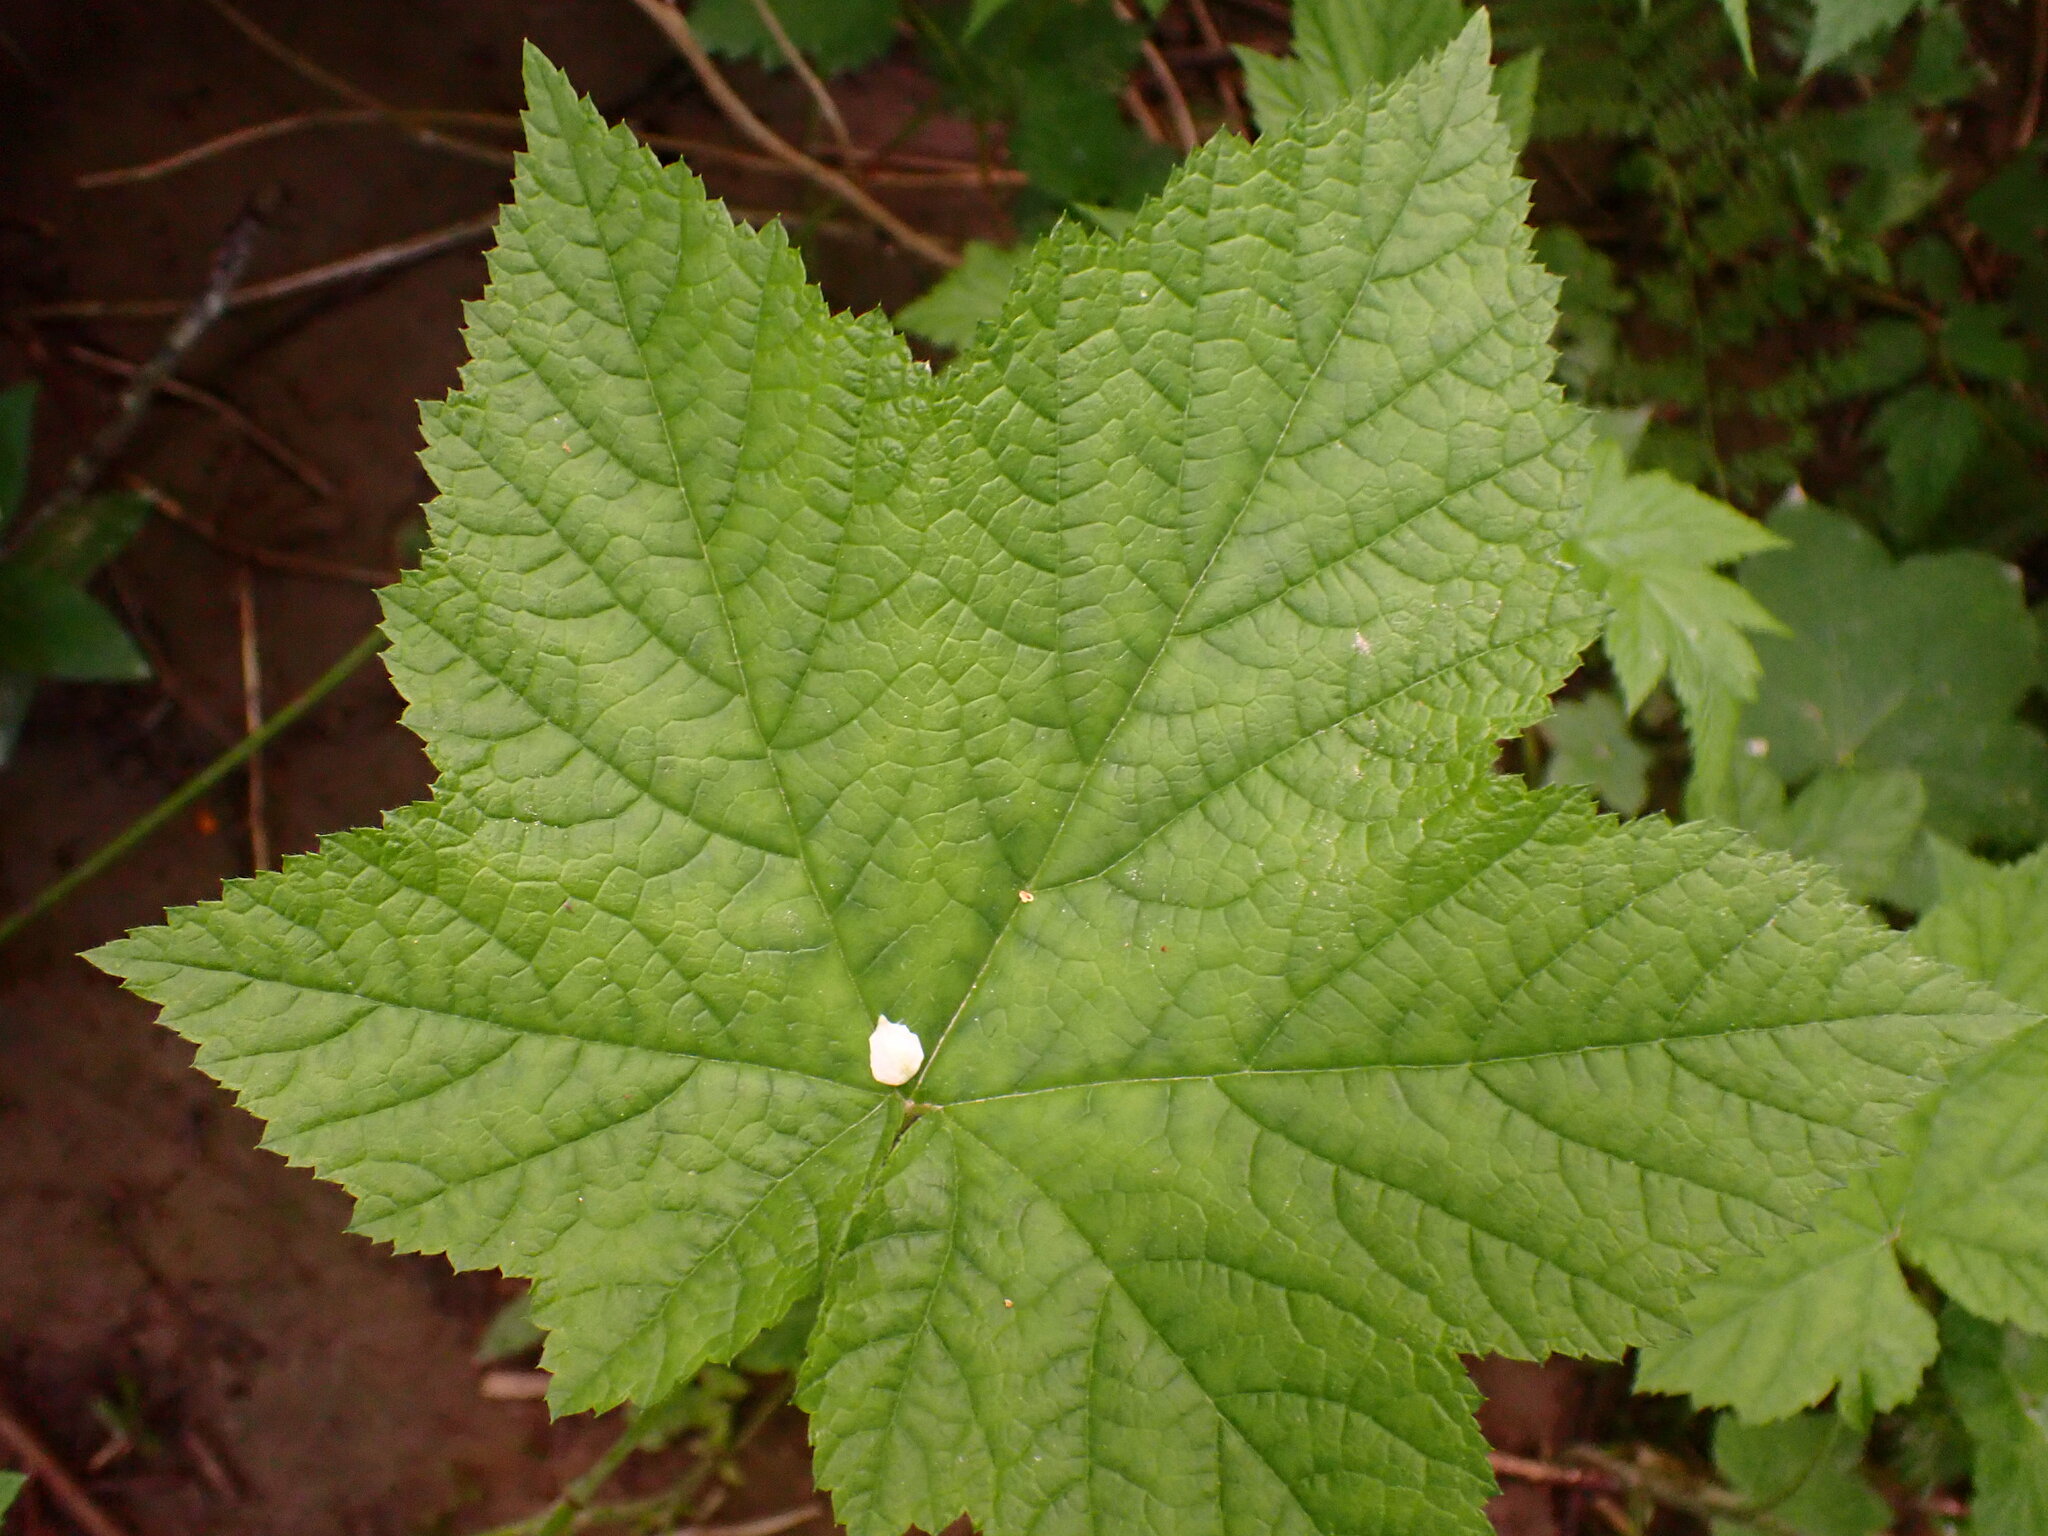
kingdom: Plantae
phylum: Tracheophyta
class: Magnoliopsida
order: Rosales
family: Rosaceae
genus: Rubus
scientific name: Rubus parviflorus
